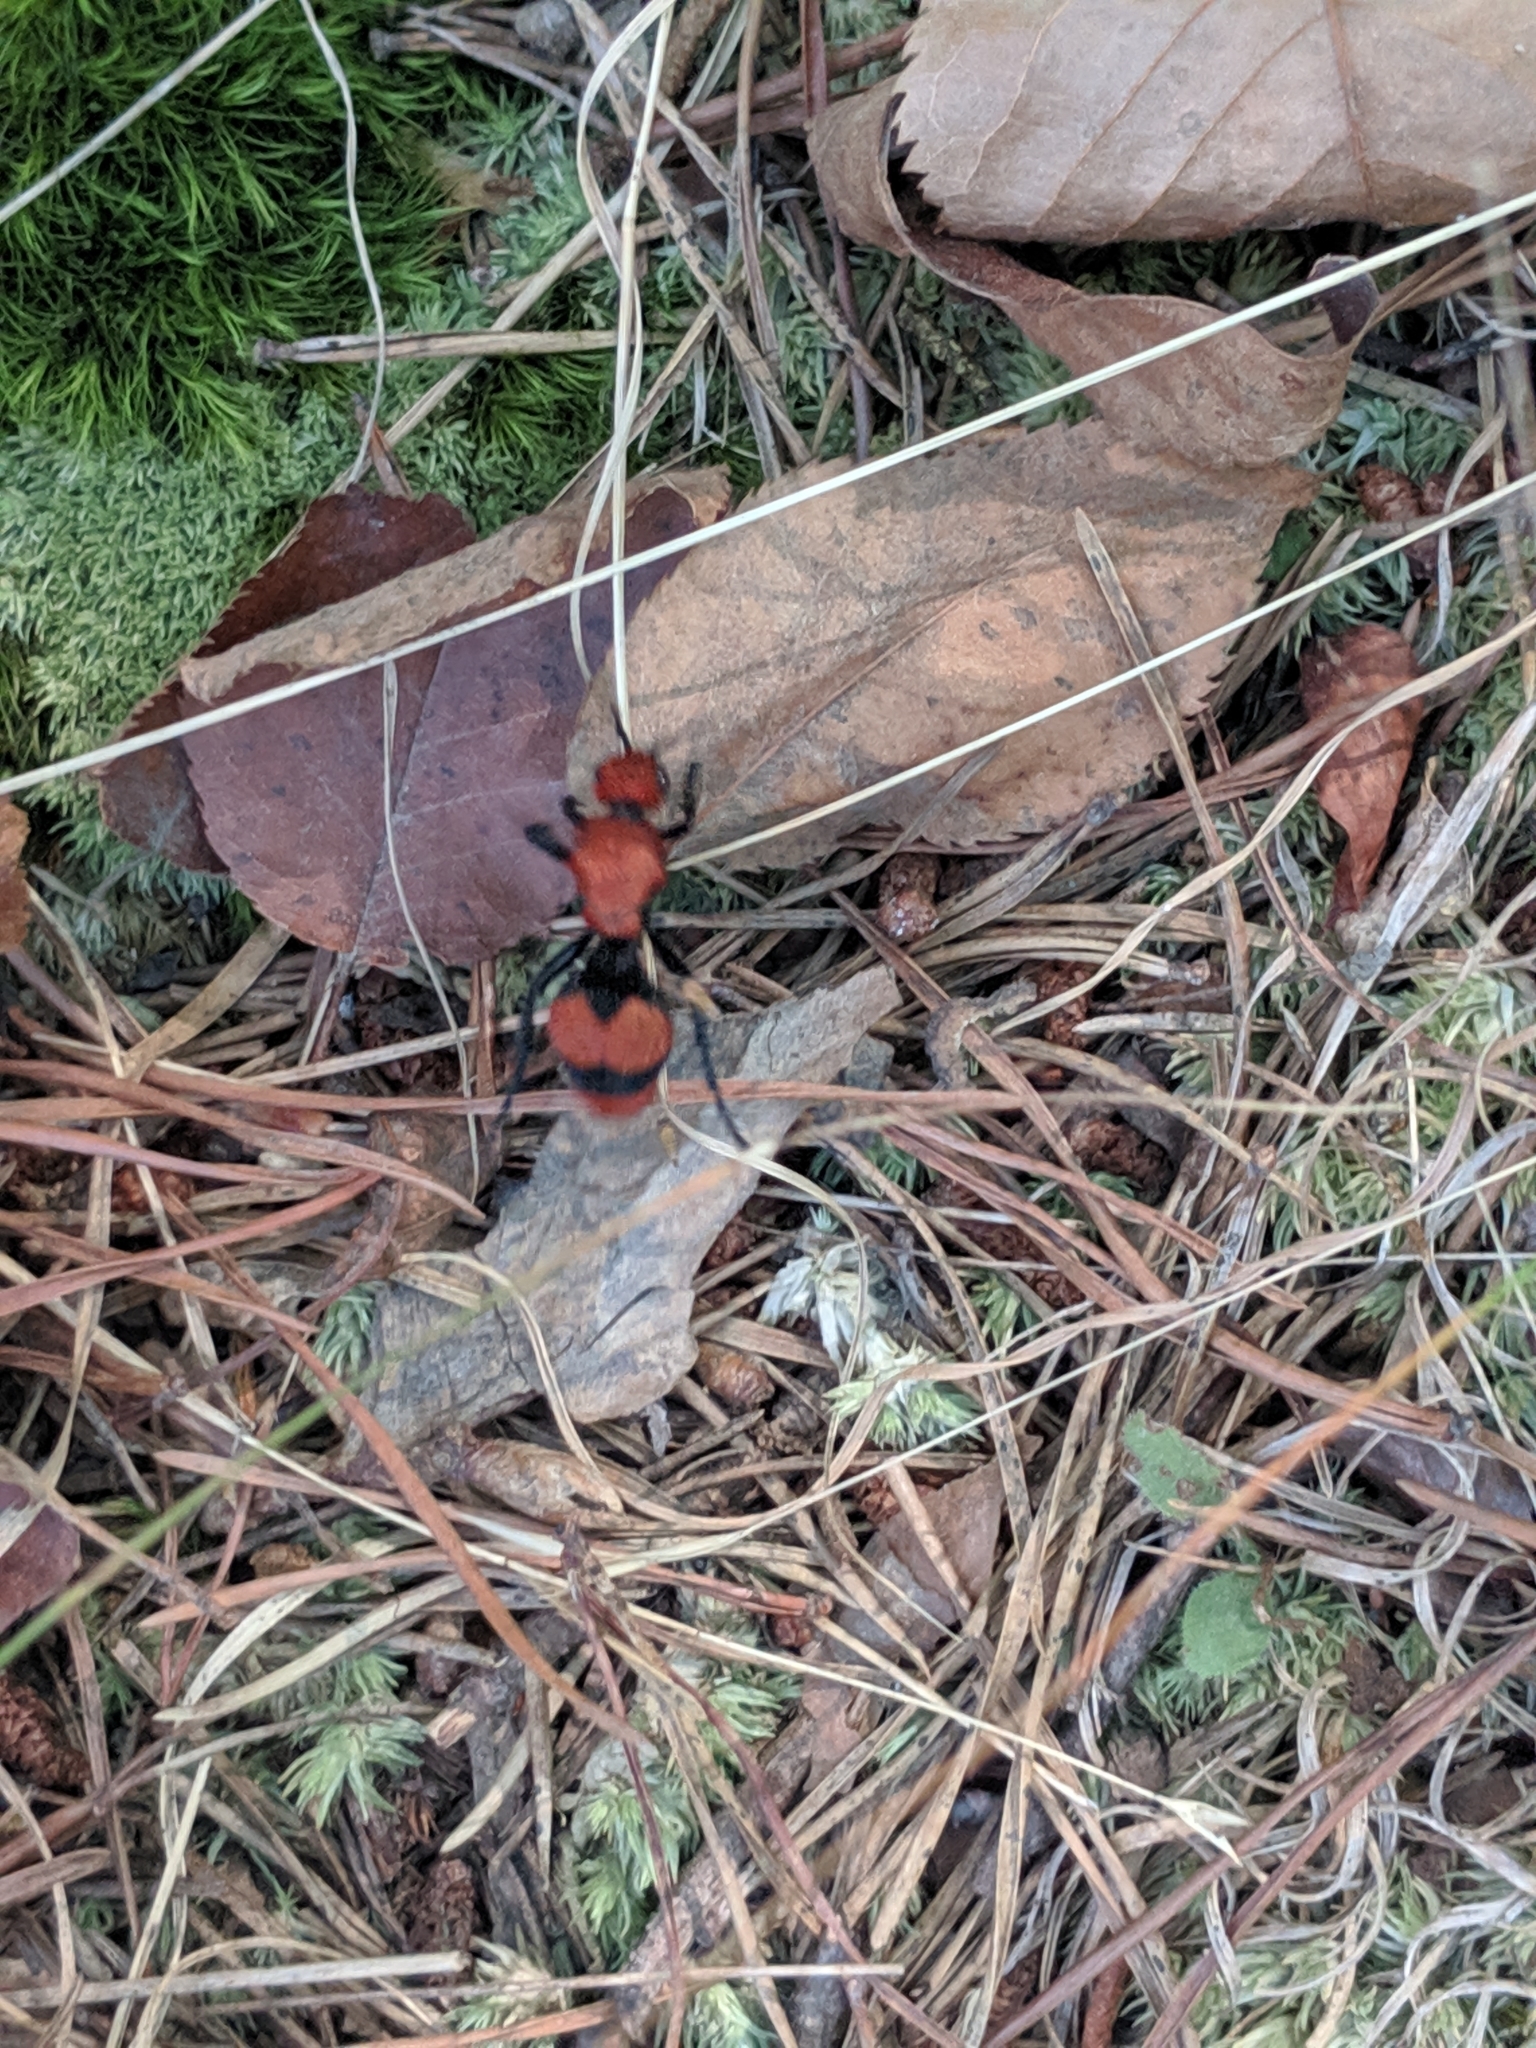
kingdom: Animalia
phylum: Arthropoda
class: Insecta
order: Hymenoptera
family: Mutillidae
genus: Dasymutilla
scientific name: Dasymutilla occidentalis
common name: Common eastern velvet ant
